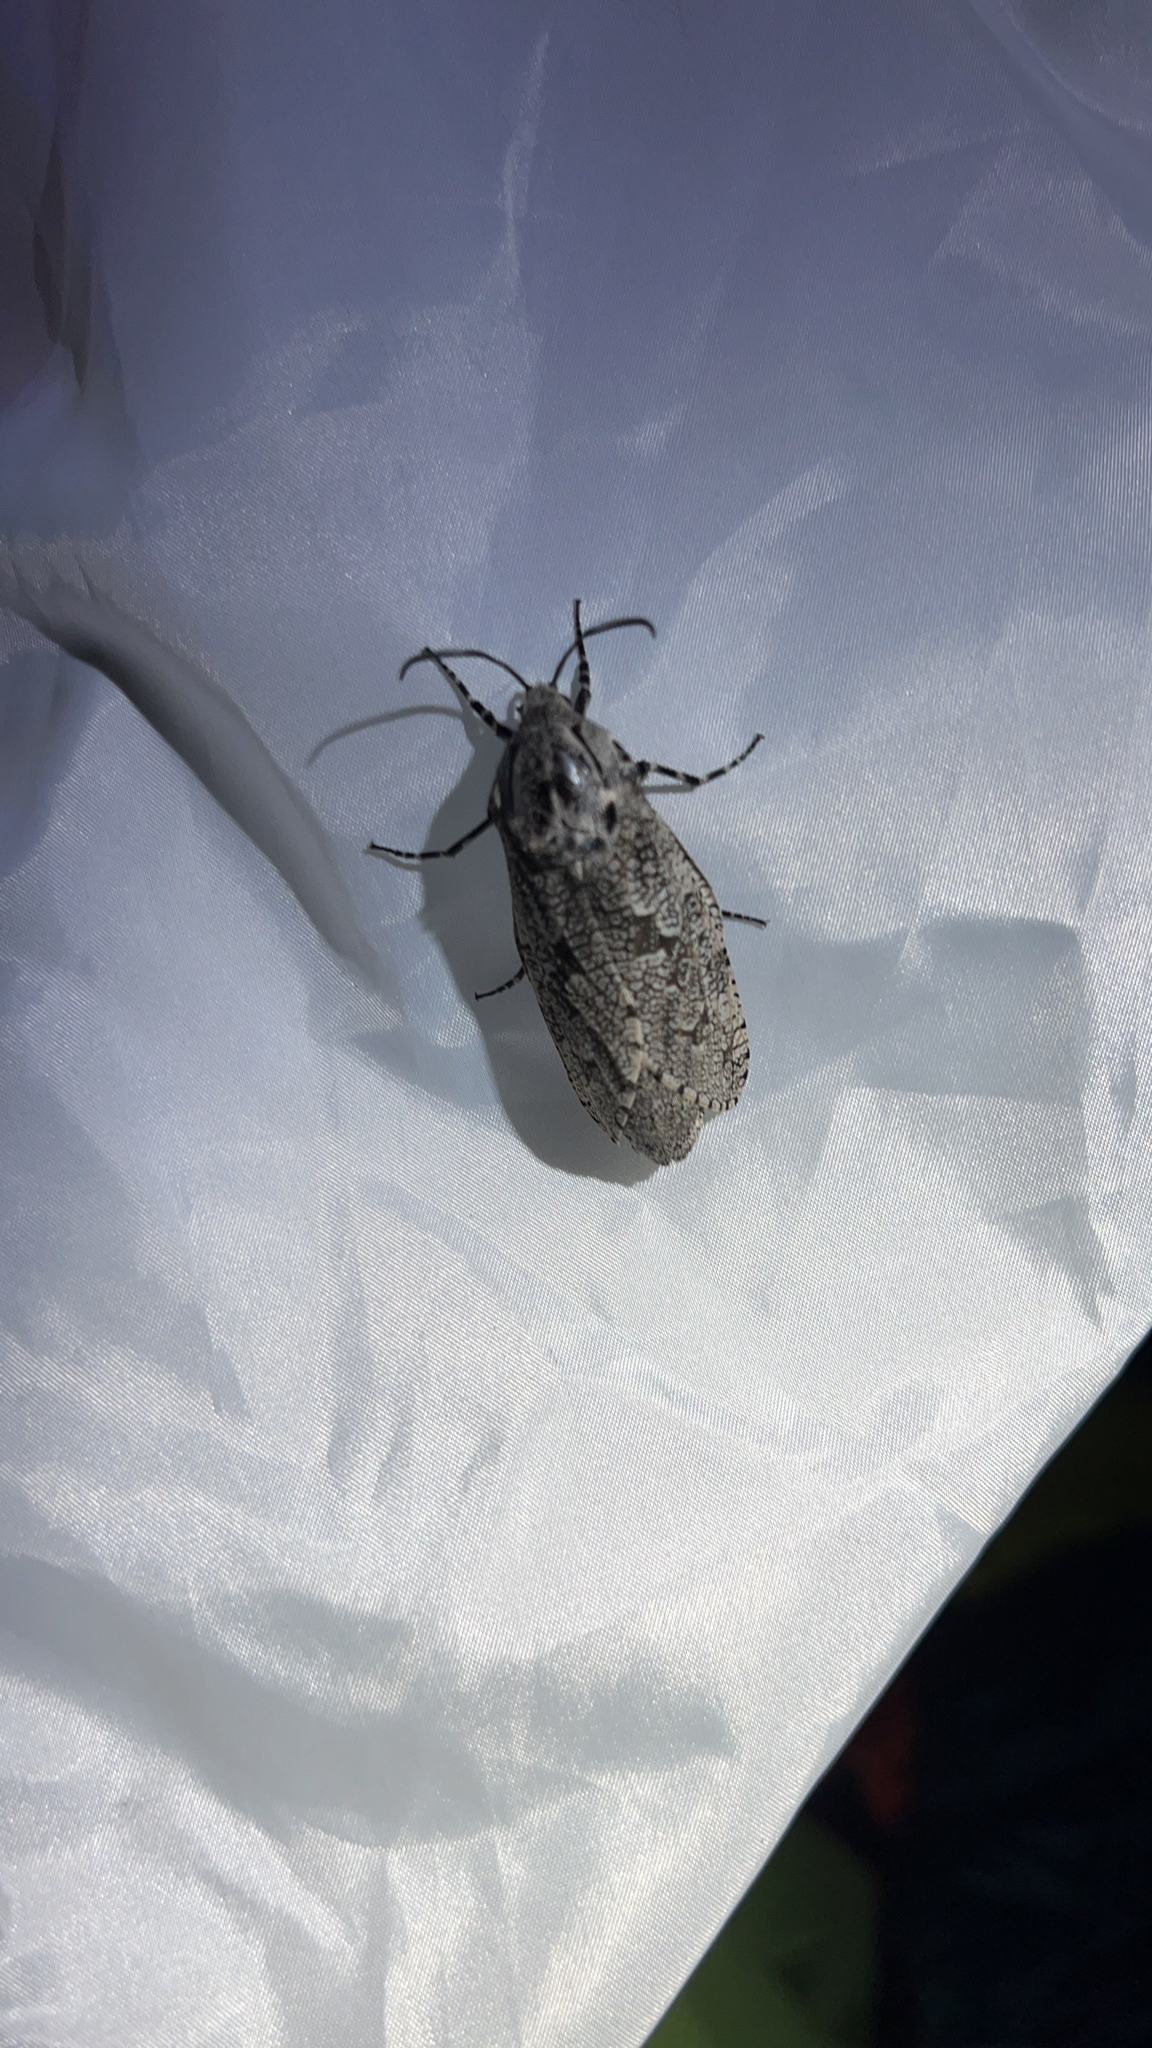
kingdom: Animalia
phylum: Arthropoda
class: Insecta
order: Lepidoptera
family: Cossidae
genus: Prionoxystus
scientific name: Prionoxystus robiniae
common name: Carpenterworm
